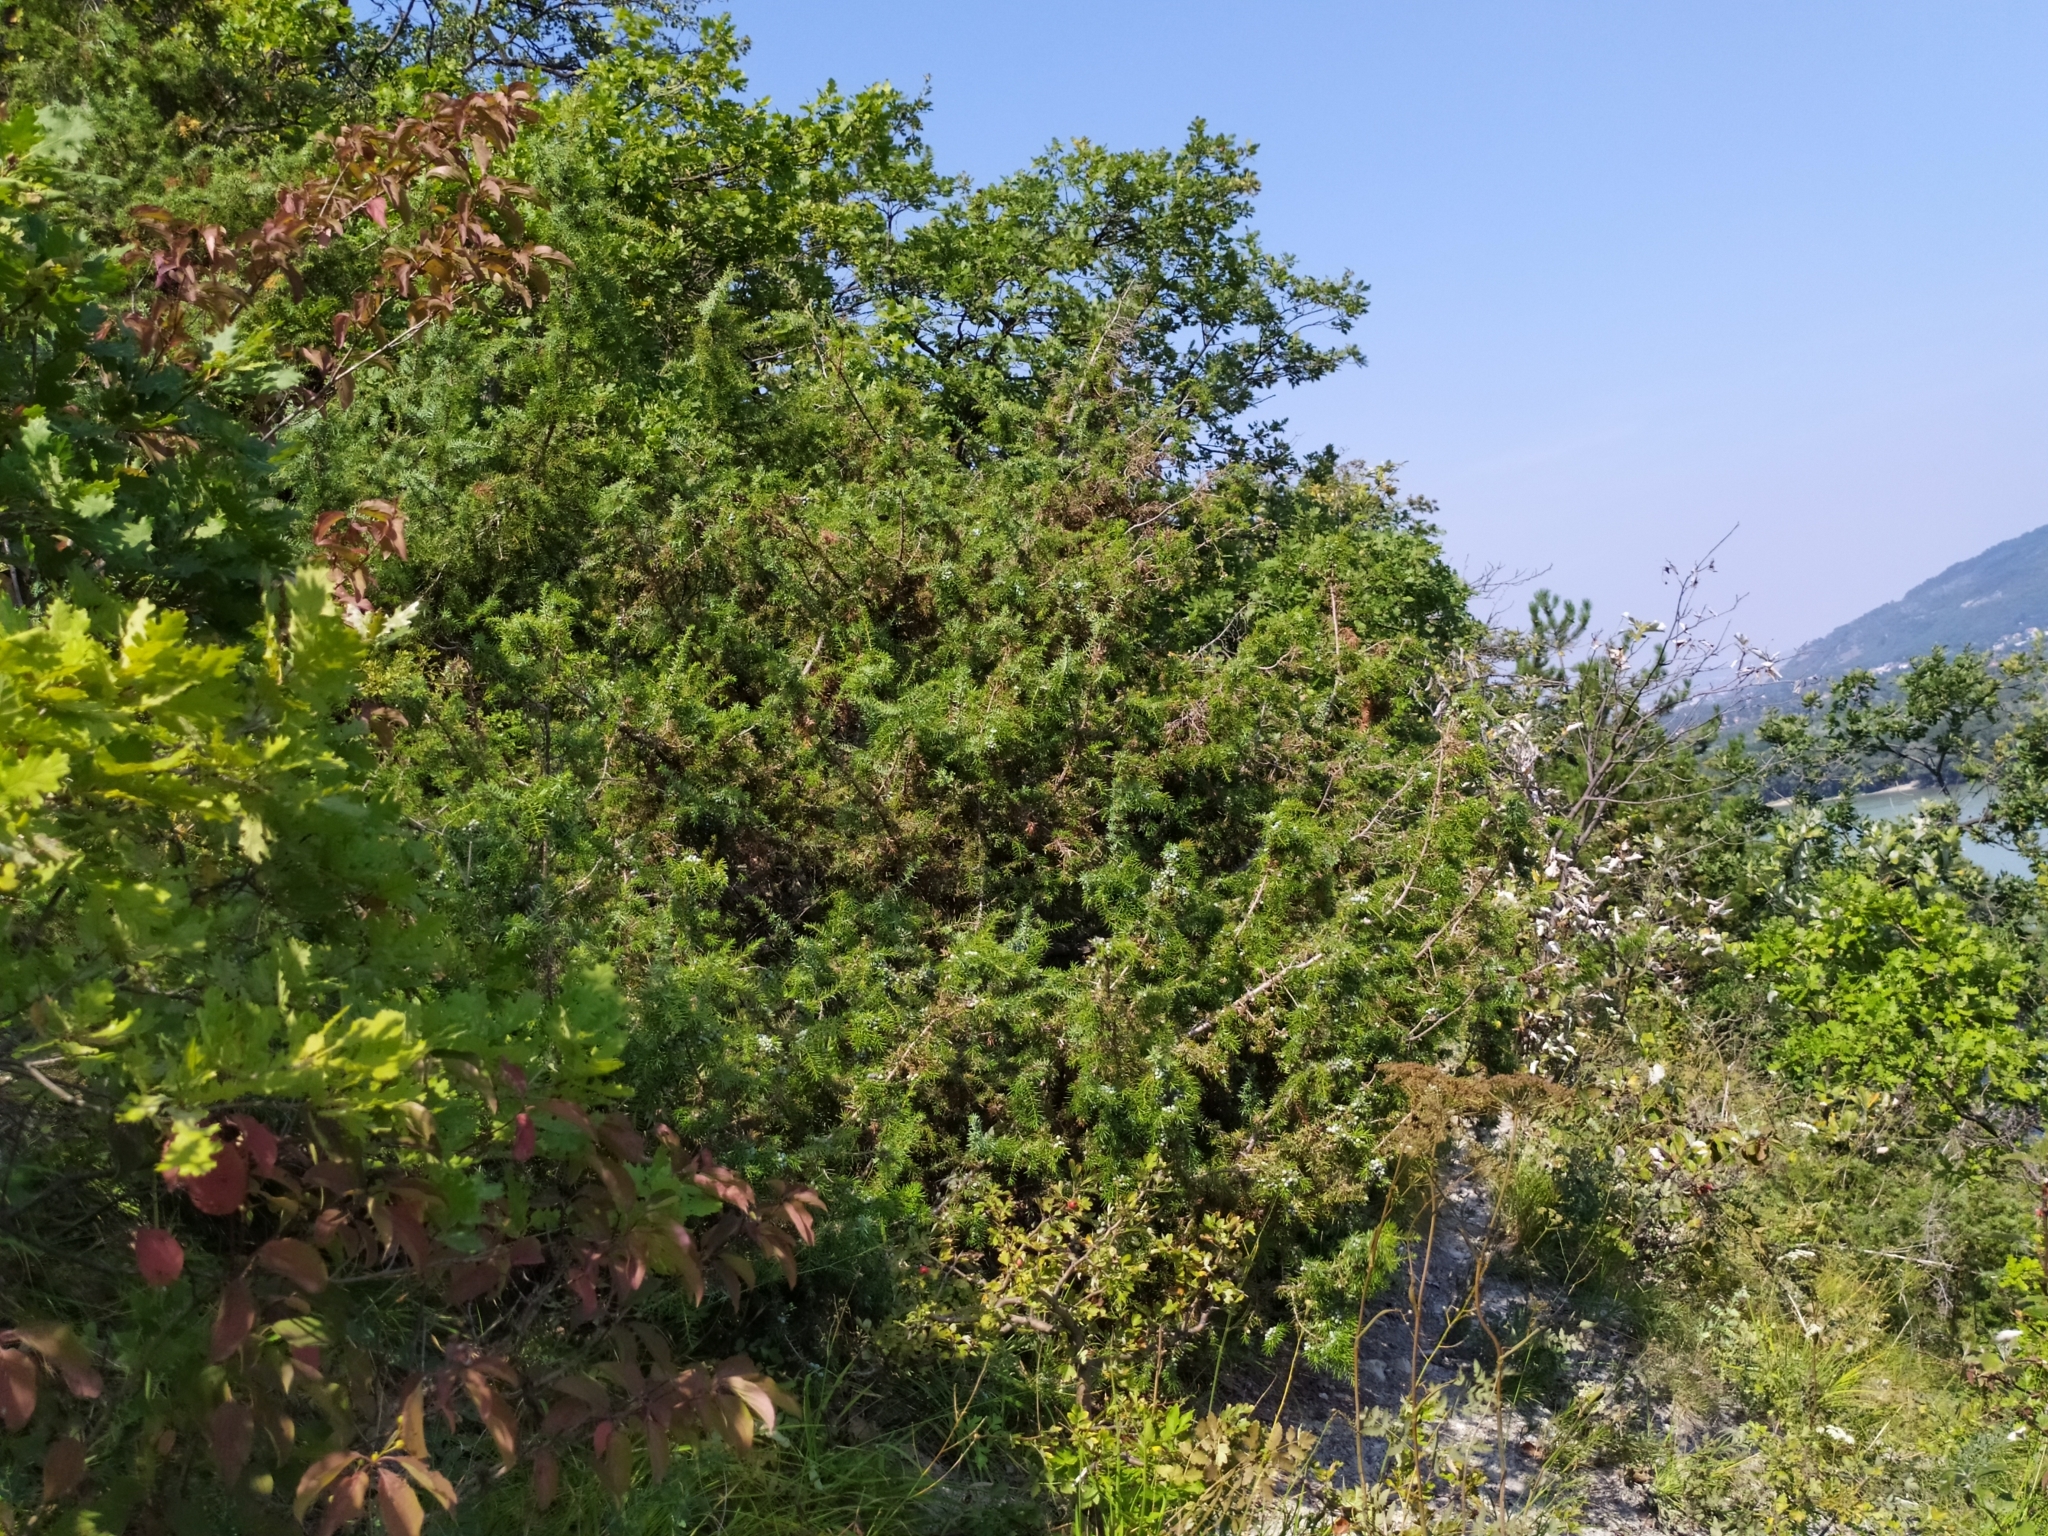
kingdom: Plantae
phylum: Tracheophyta
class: Pinopsida
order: Pinales
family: Cupressaceae
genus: Juniperus
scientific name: Juniperus communis
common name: Common juniper
